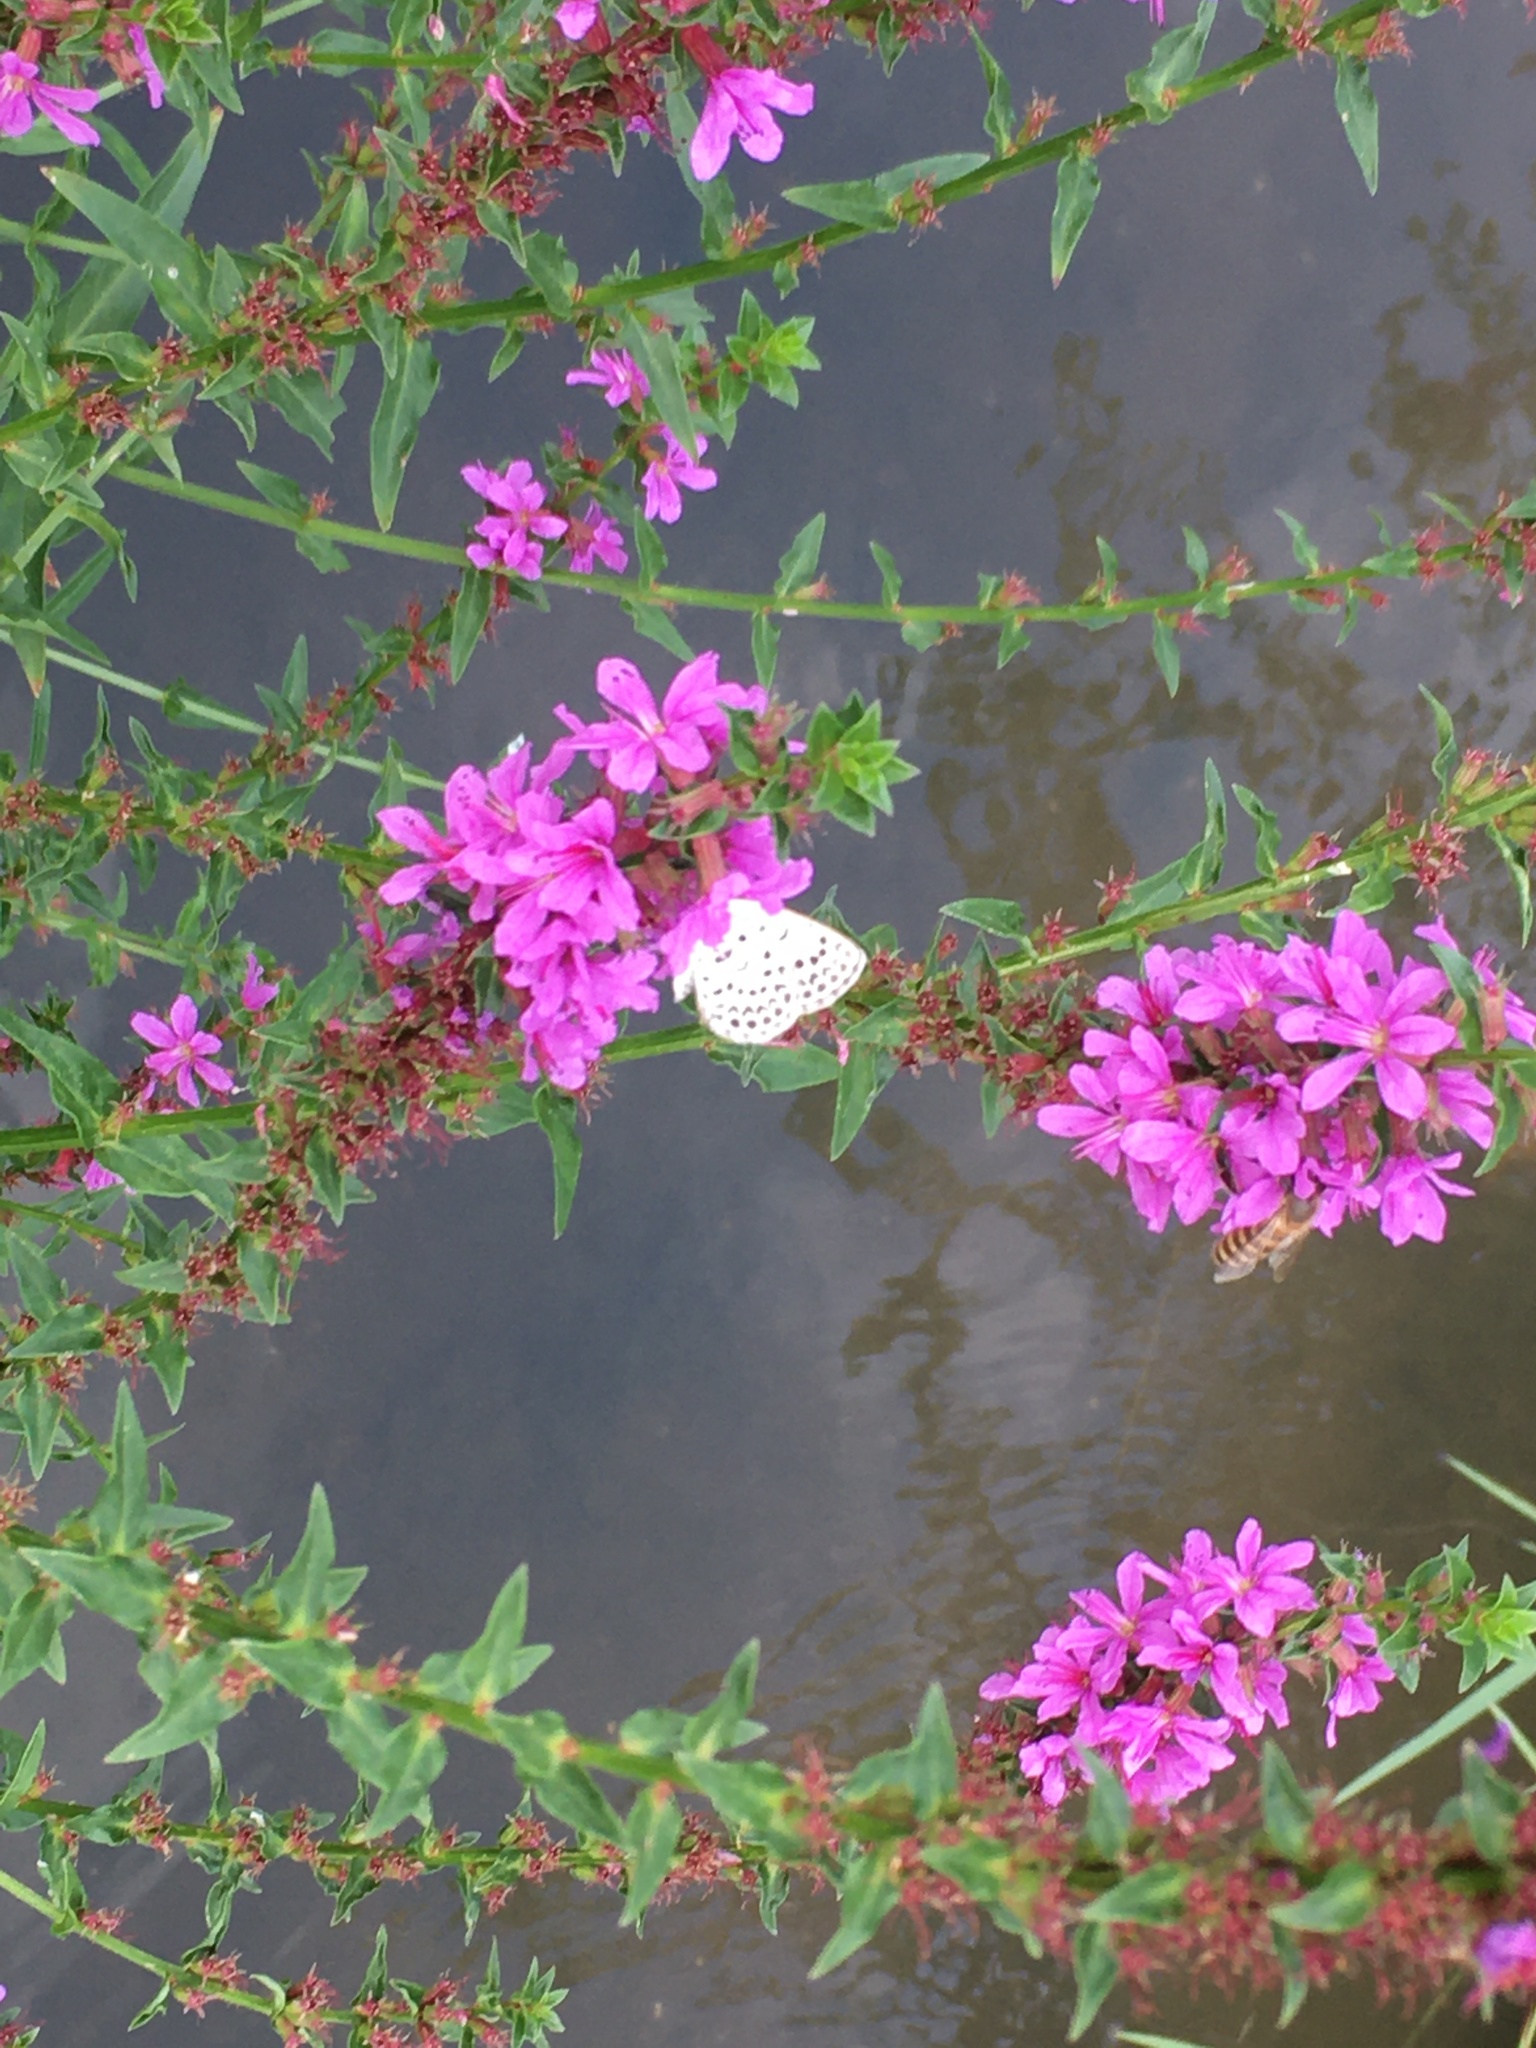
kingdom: Animalia
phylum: Arthropoda
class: Insecta
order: Lepidoptera
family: Lycaenidae
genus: Pseudozizeeria
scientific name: Pseudozizeeria maha
